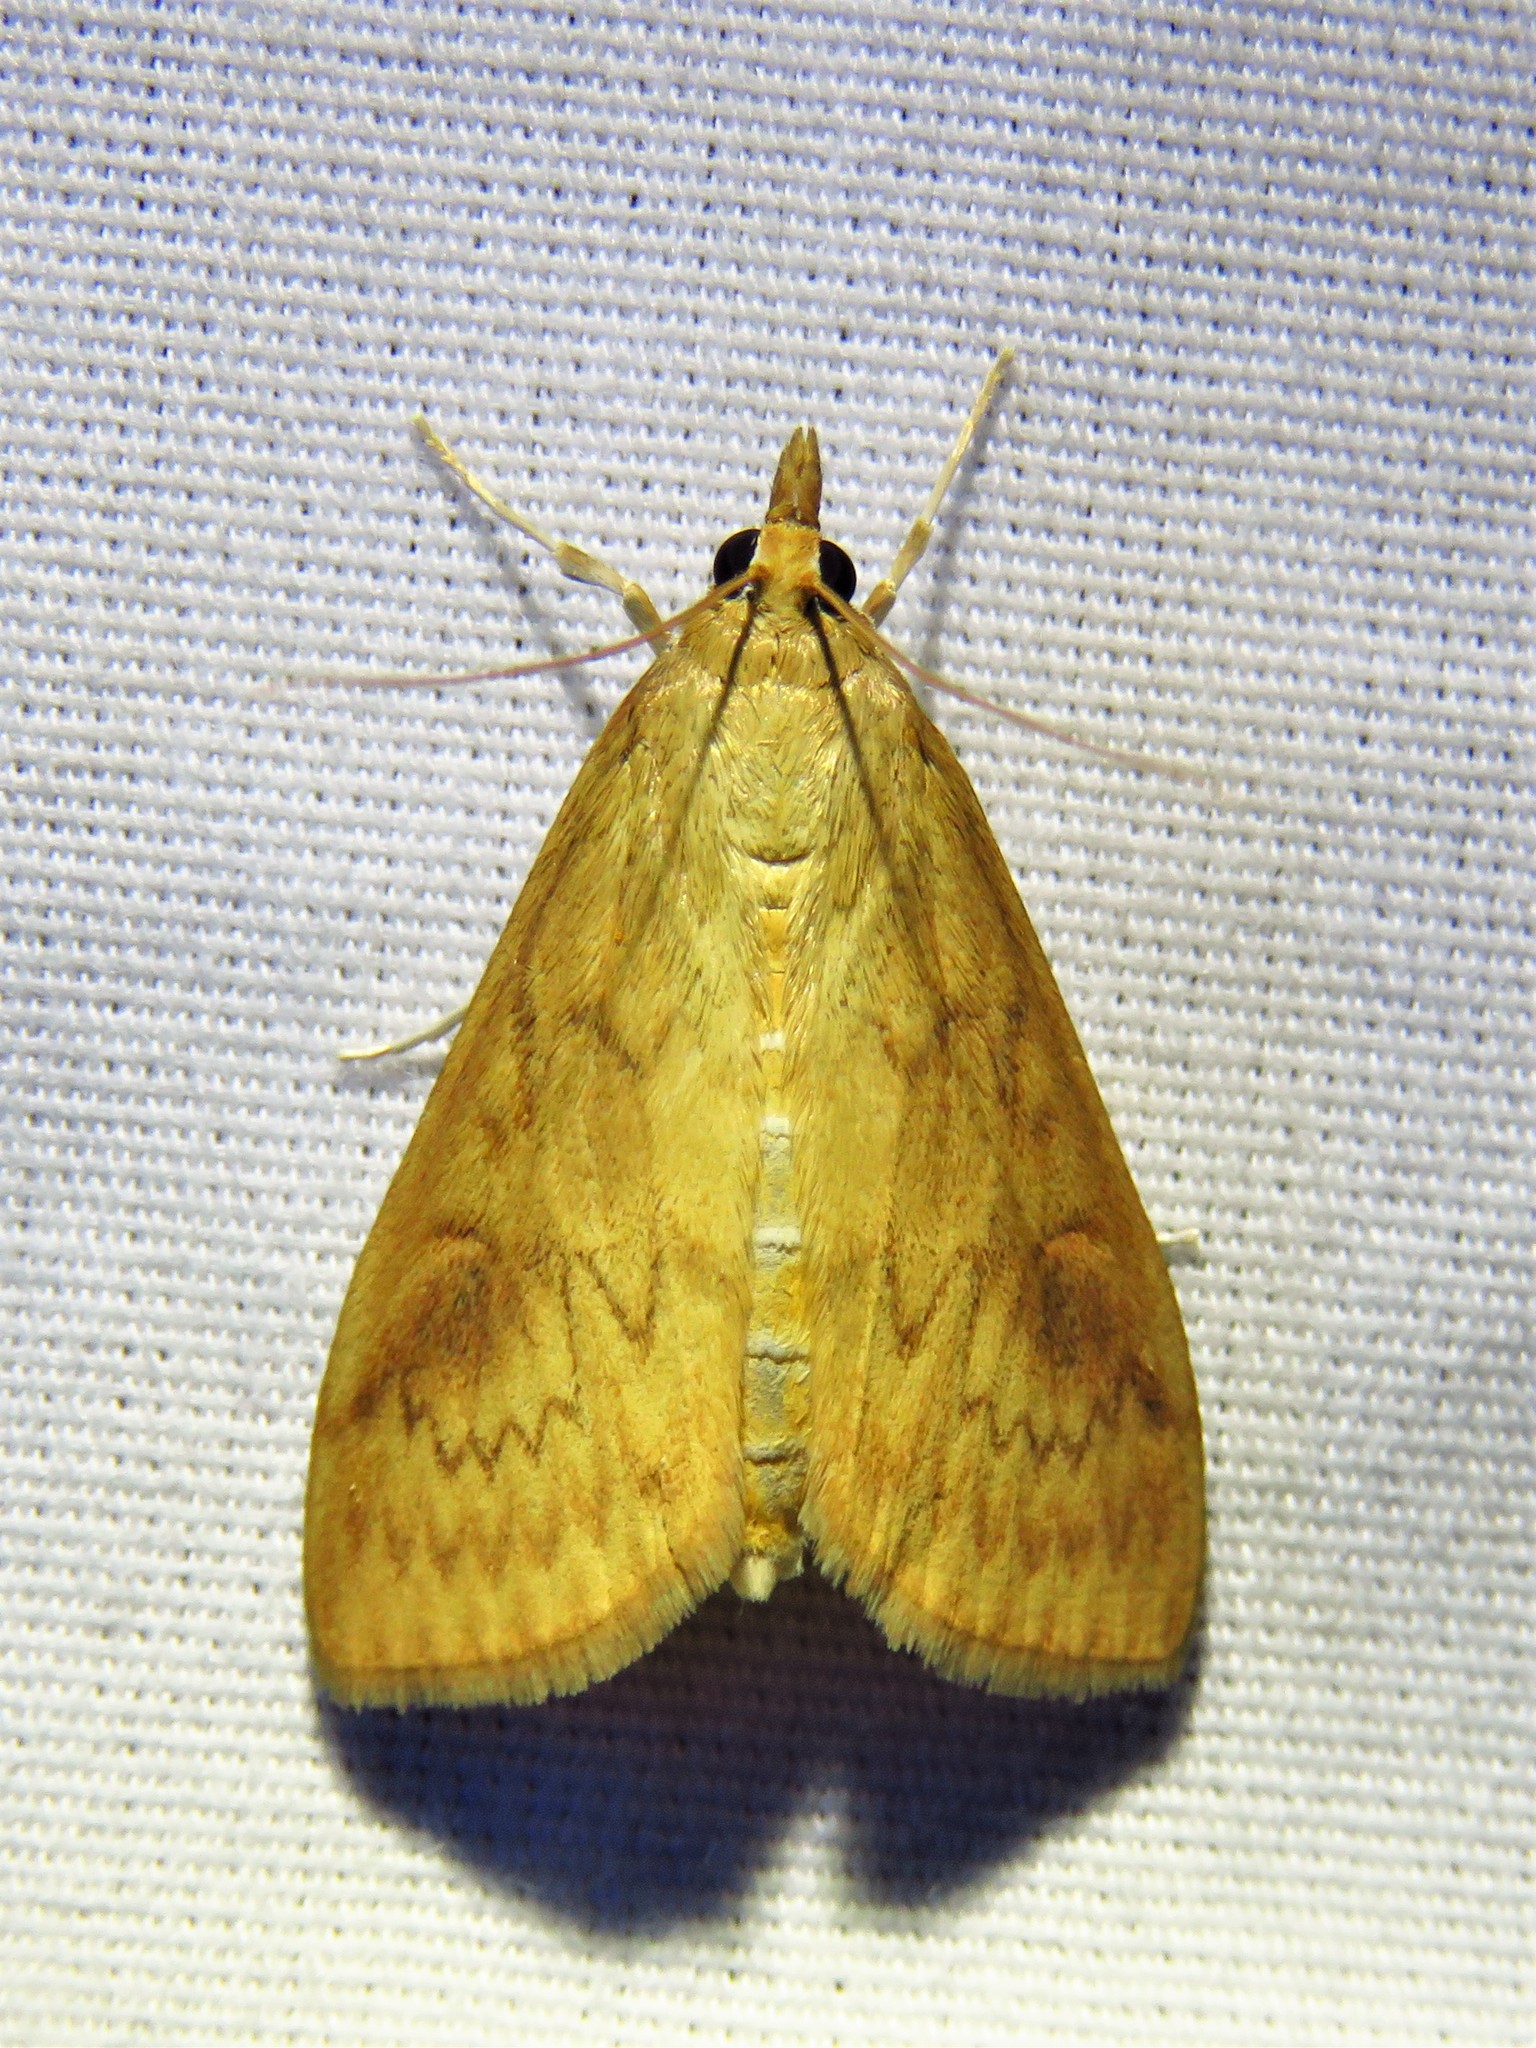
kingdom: Animalia
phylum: Arthropoda
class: Insecta
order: Lepidoptera
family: Crambidae
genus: Ostrinia
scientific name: Ostrinia penitalis
